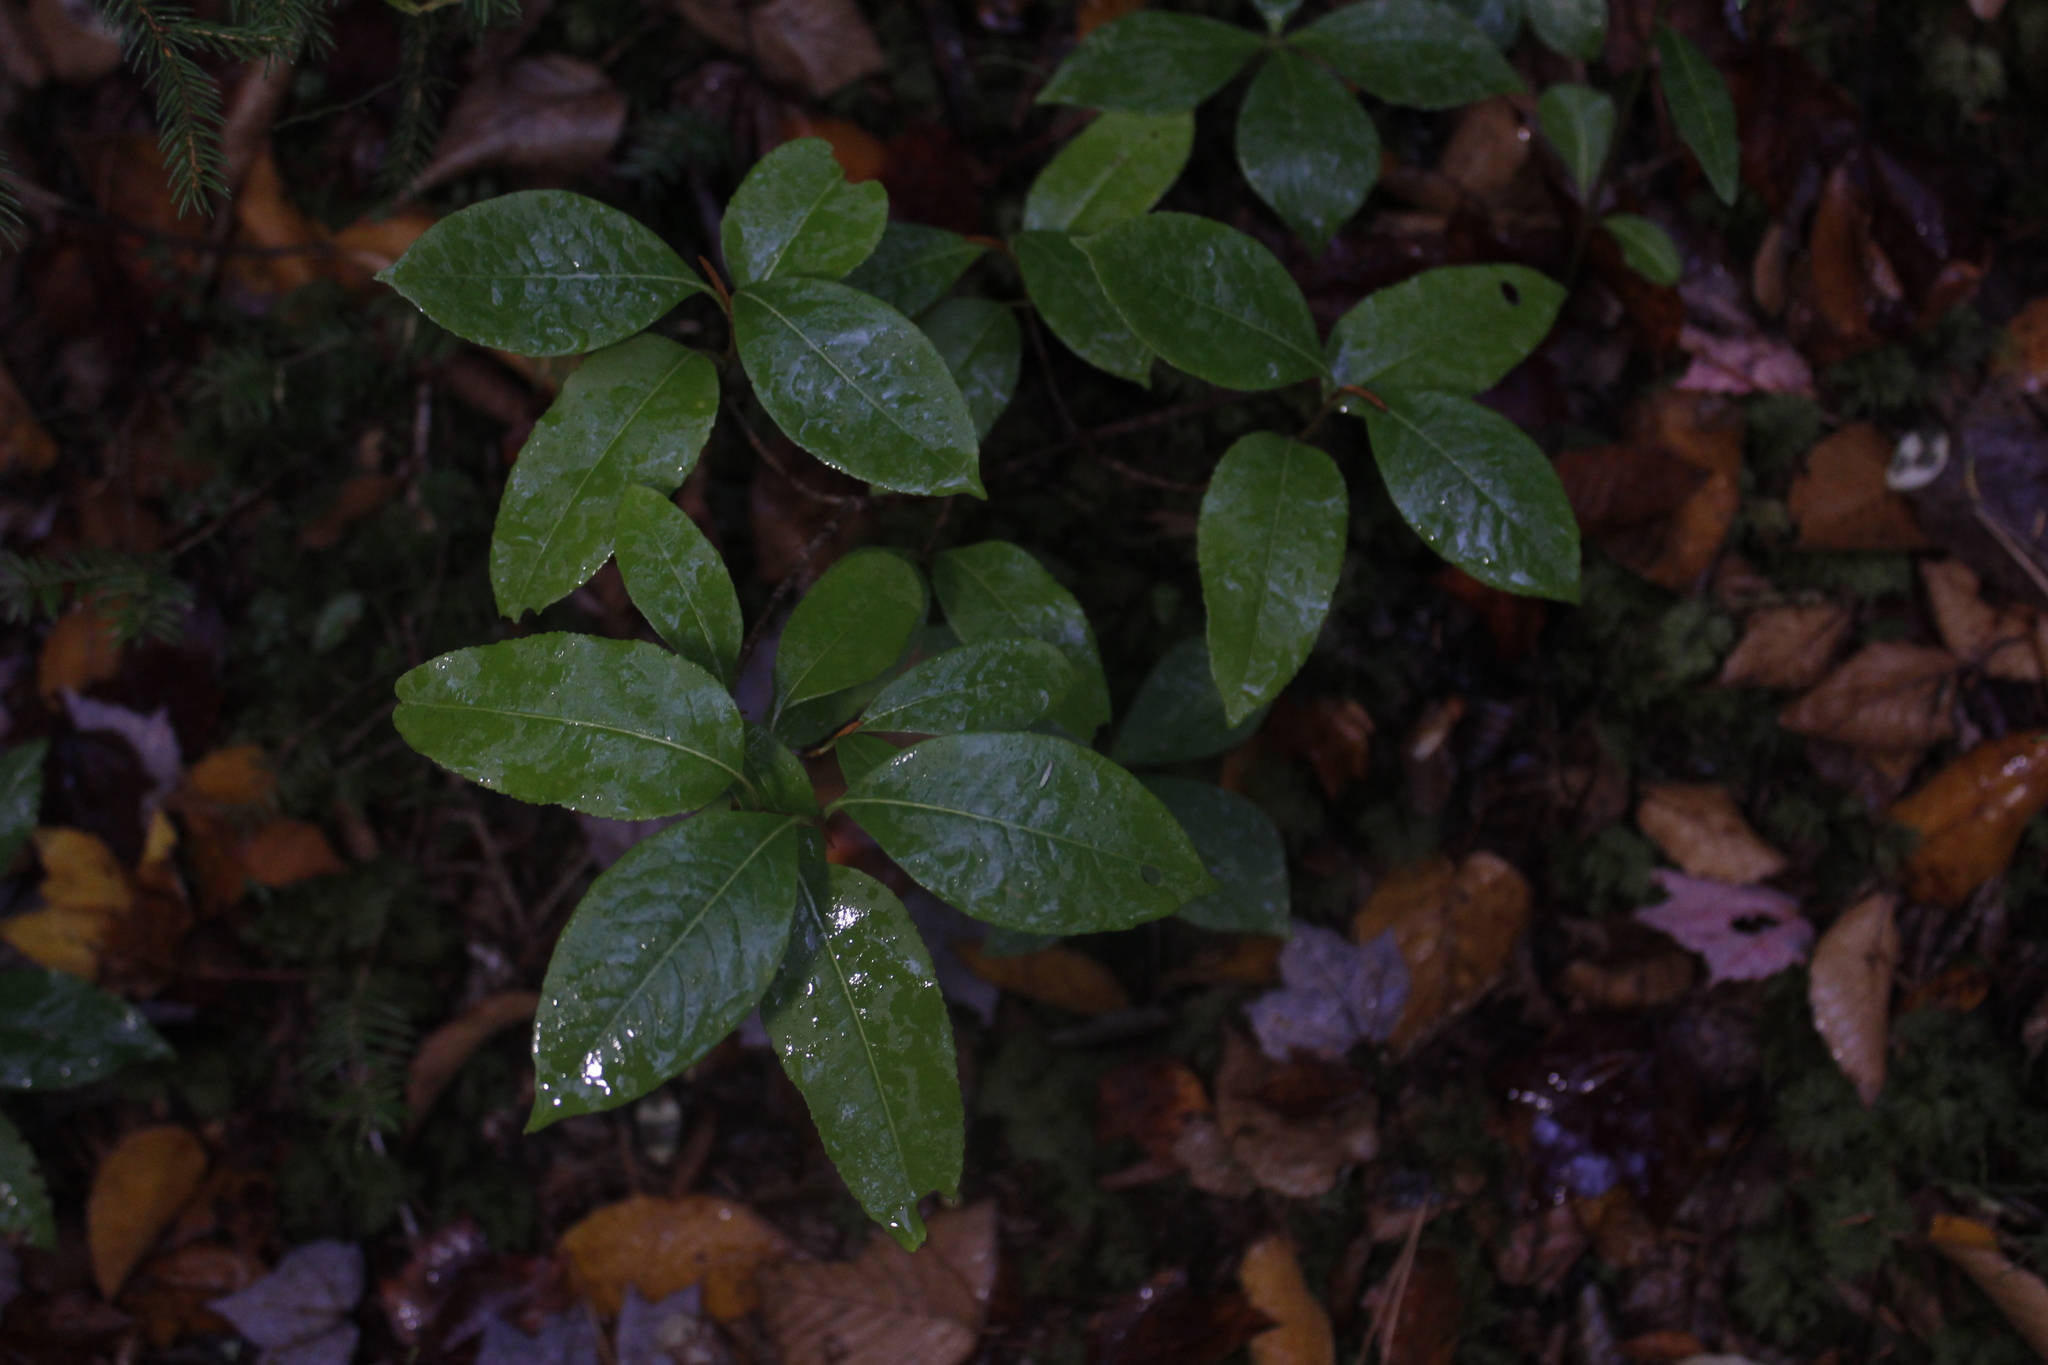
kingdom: Plantae
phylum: Tracheophyta
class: Magnoliopsida
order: Dipsacales
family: Viburnaceae
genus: Viburnum
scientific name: Viburnum cassinoides
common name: Swamp haw
